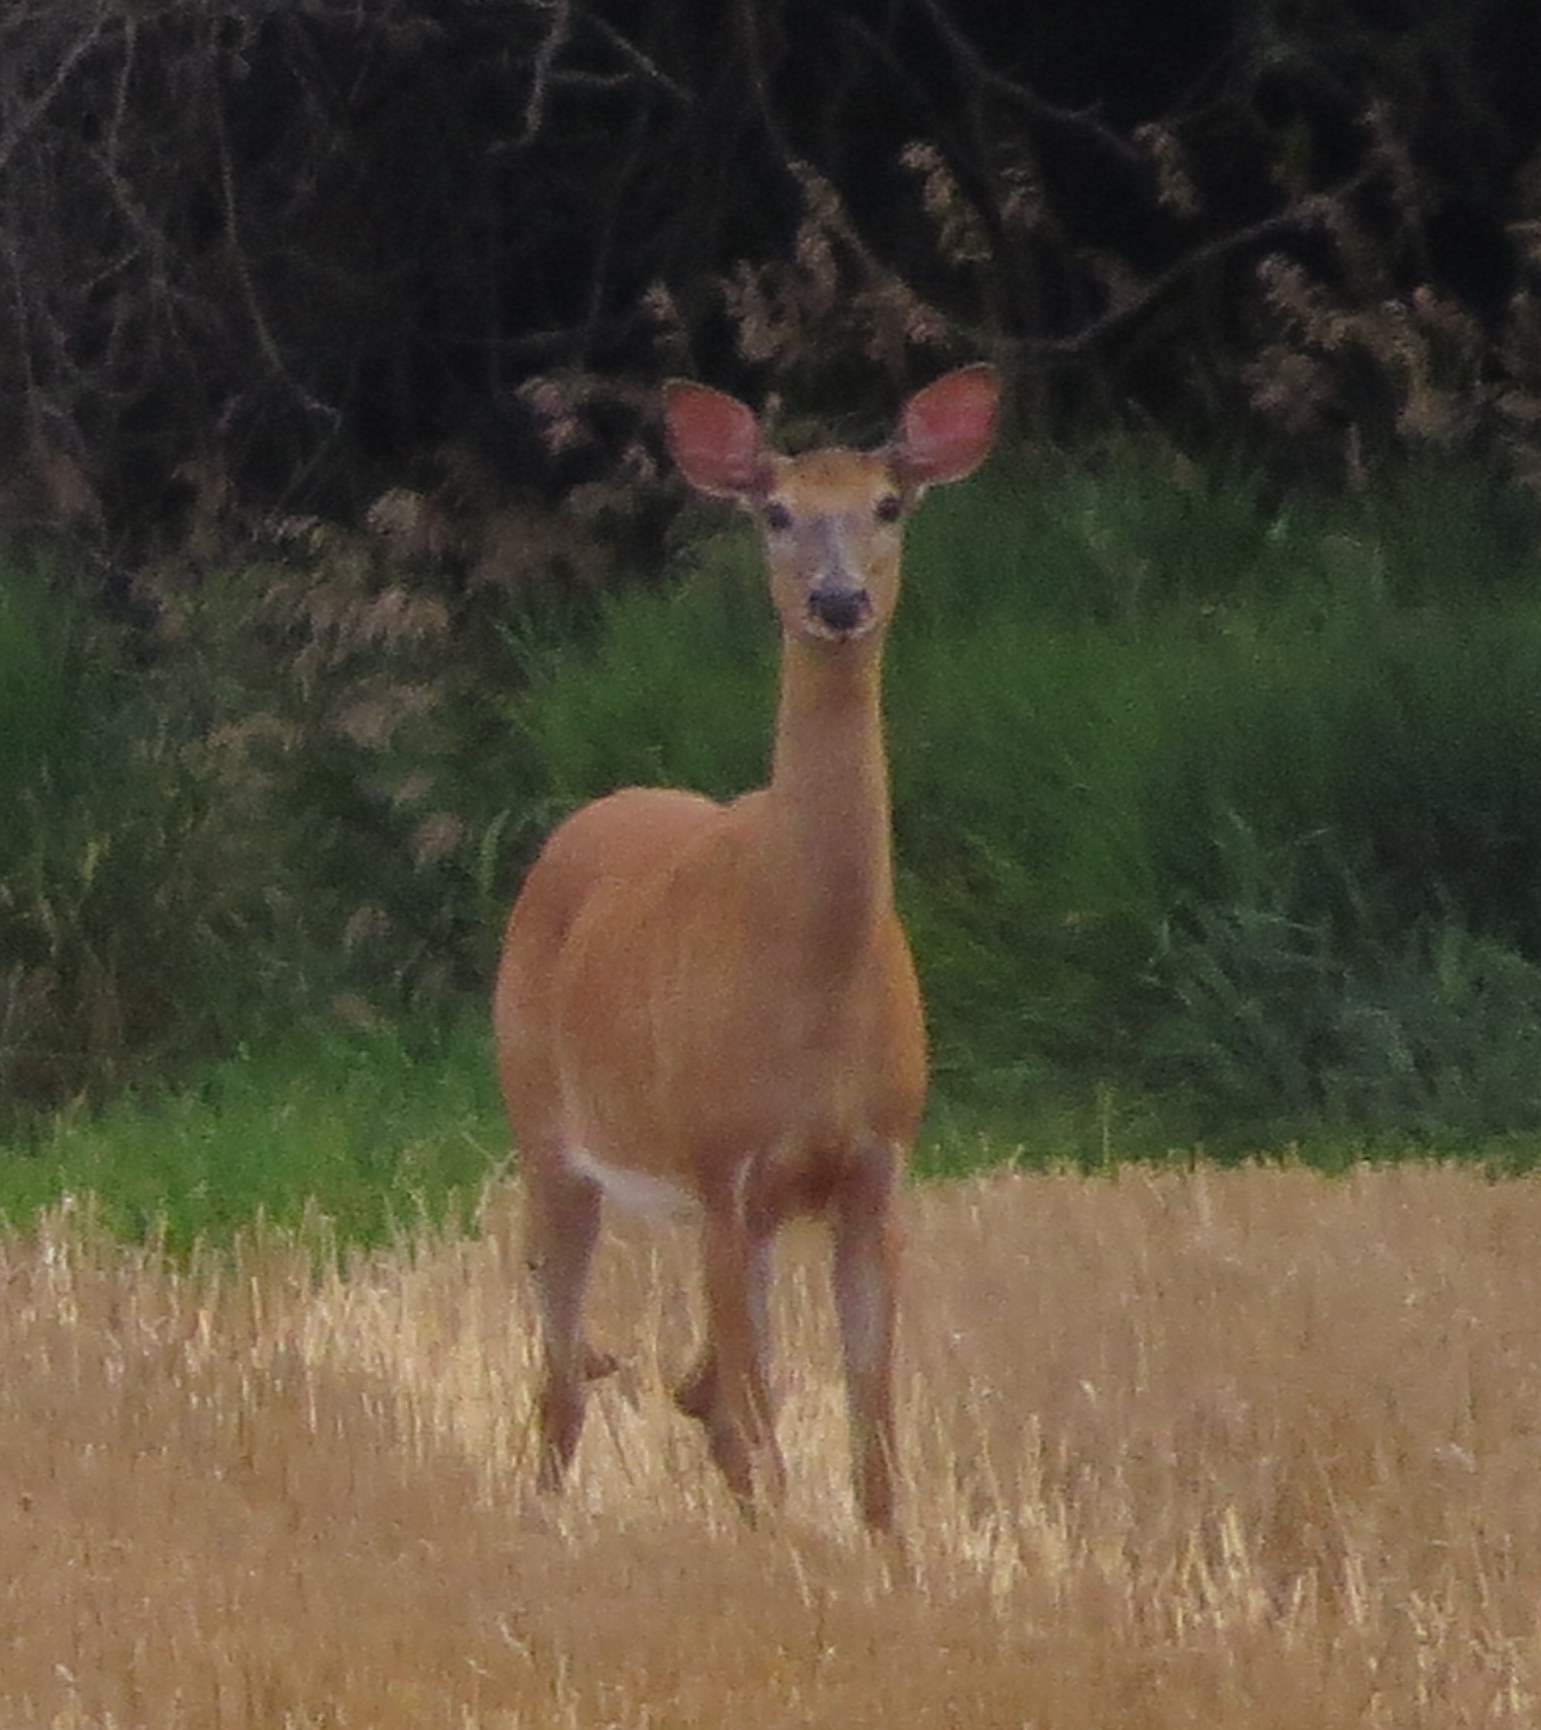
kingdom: Animalia
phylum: Chordata
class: Mammalia
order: Artiodactyla
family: Cervidae
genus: Odocoileus
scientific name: Odocoileus virginianus
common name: White-tailed deer
